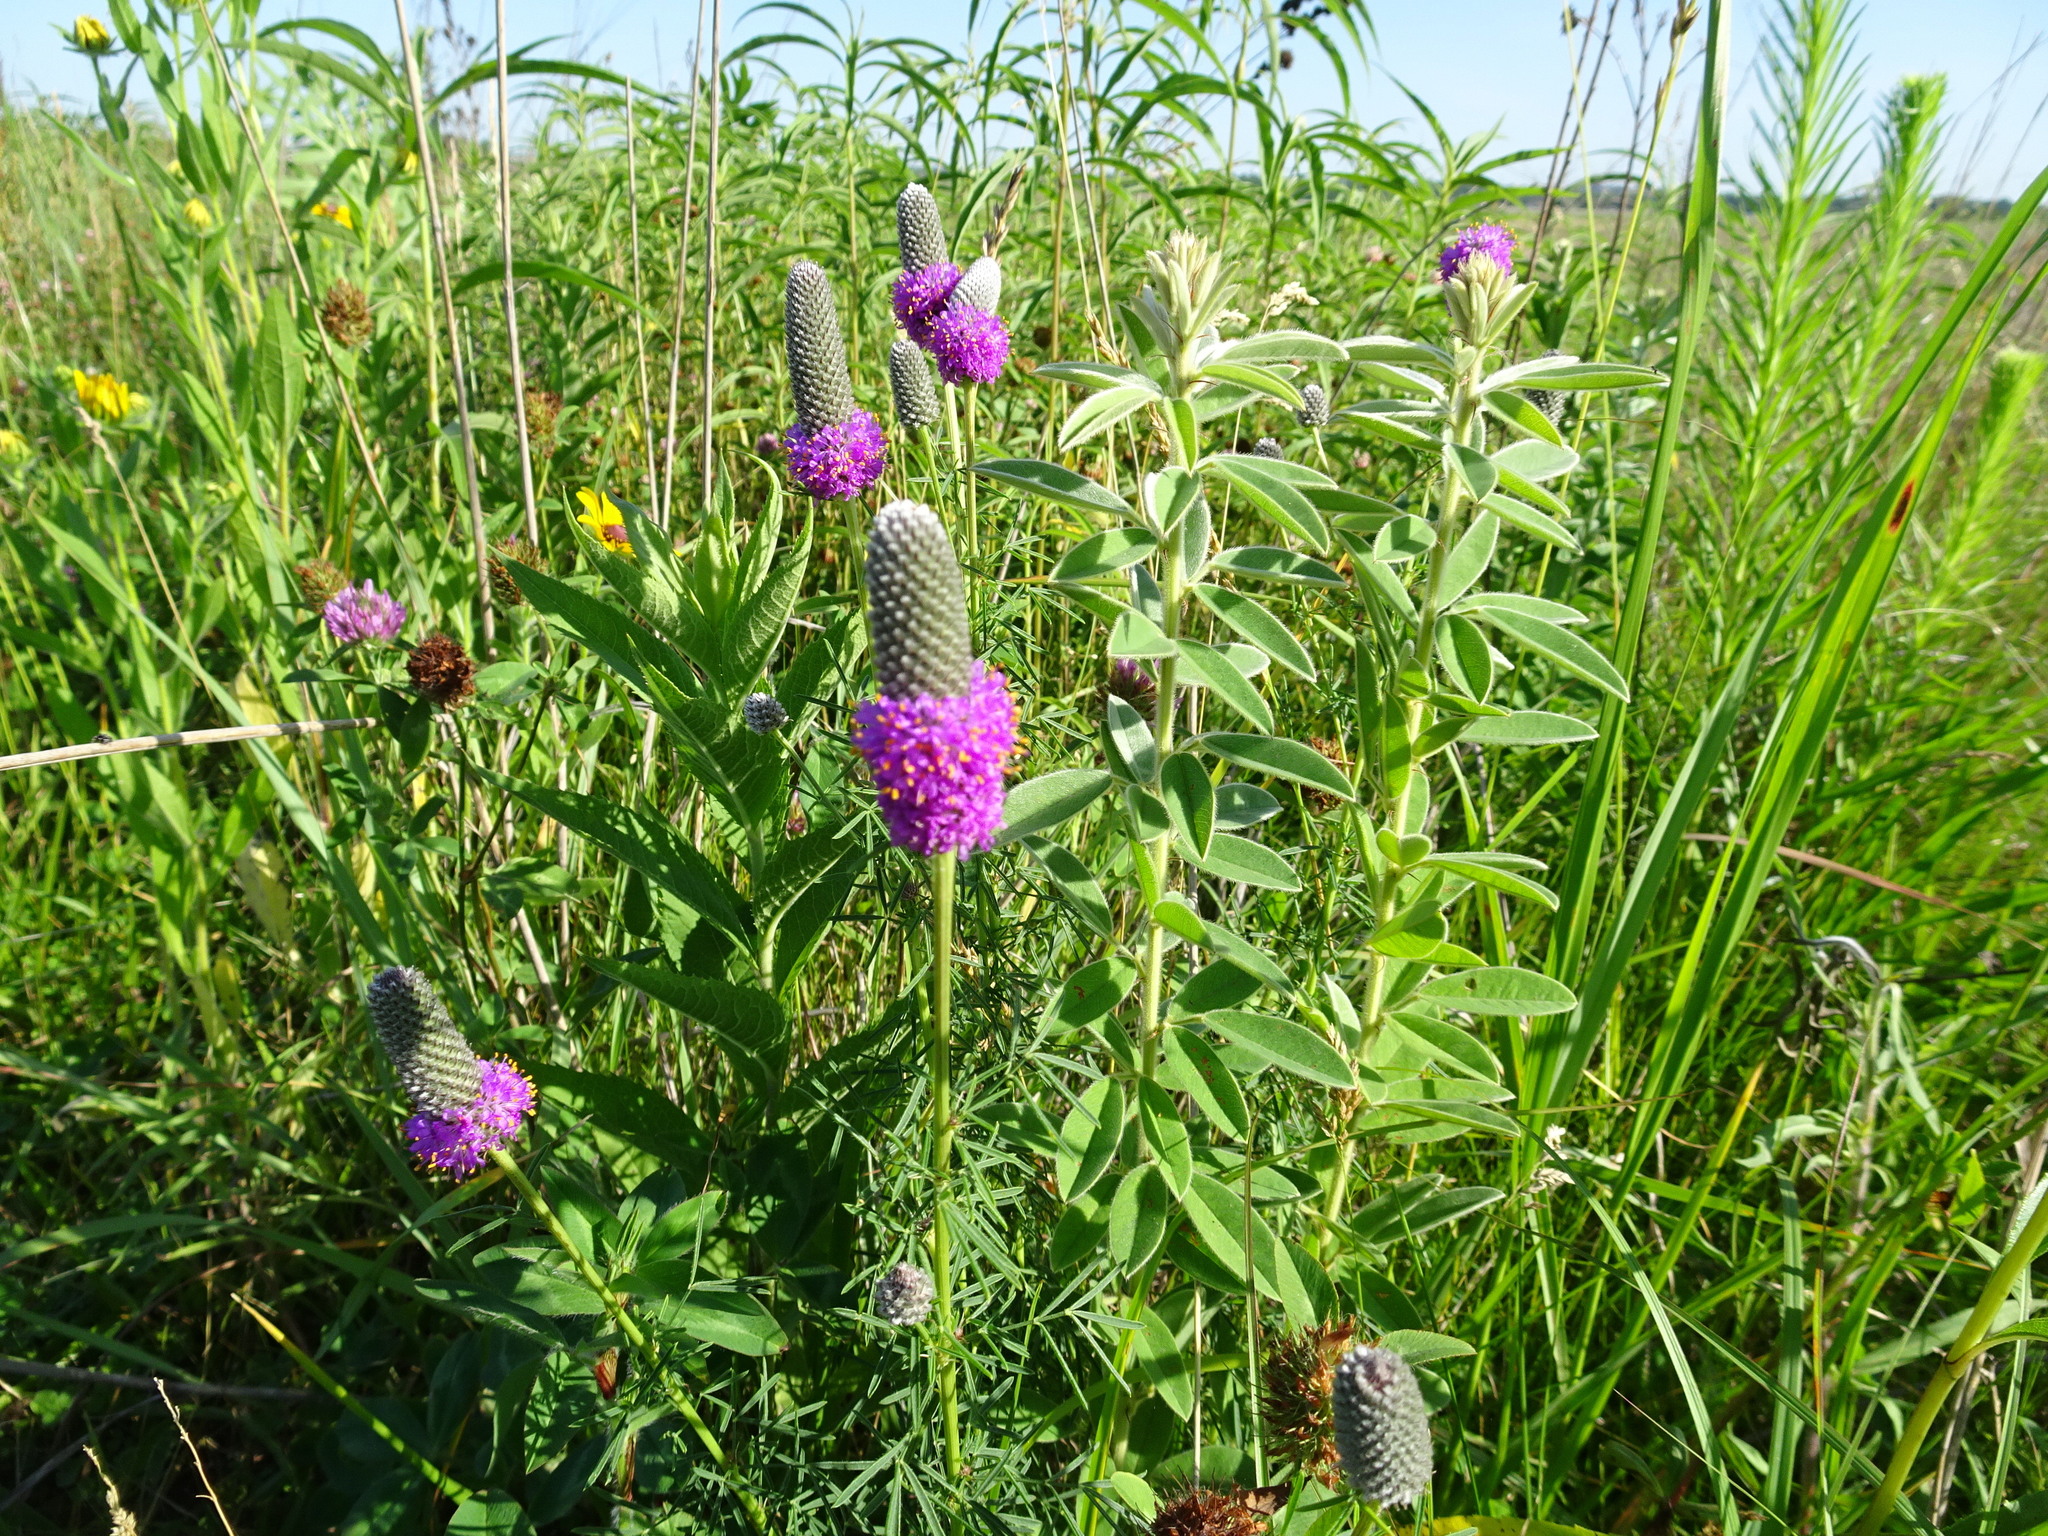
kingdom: Plantae
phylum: Tracheophyta
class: Magnoliopsida
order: Fabales
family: Fabaceae
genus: Dalea
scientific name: Dalea purpurea
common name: Purple prairie-clover
